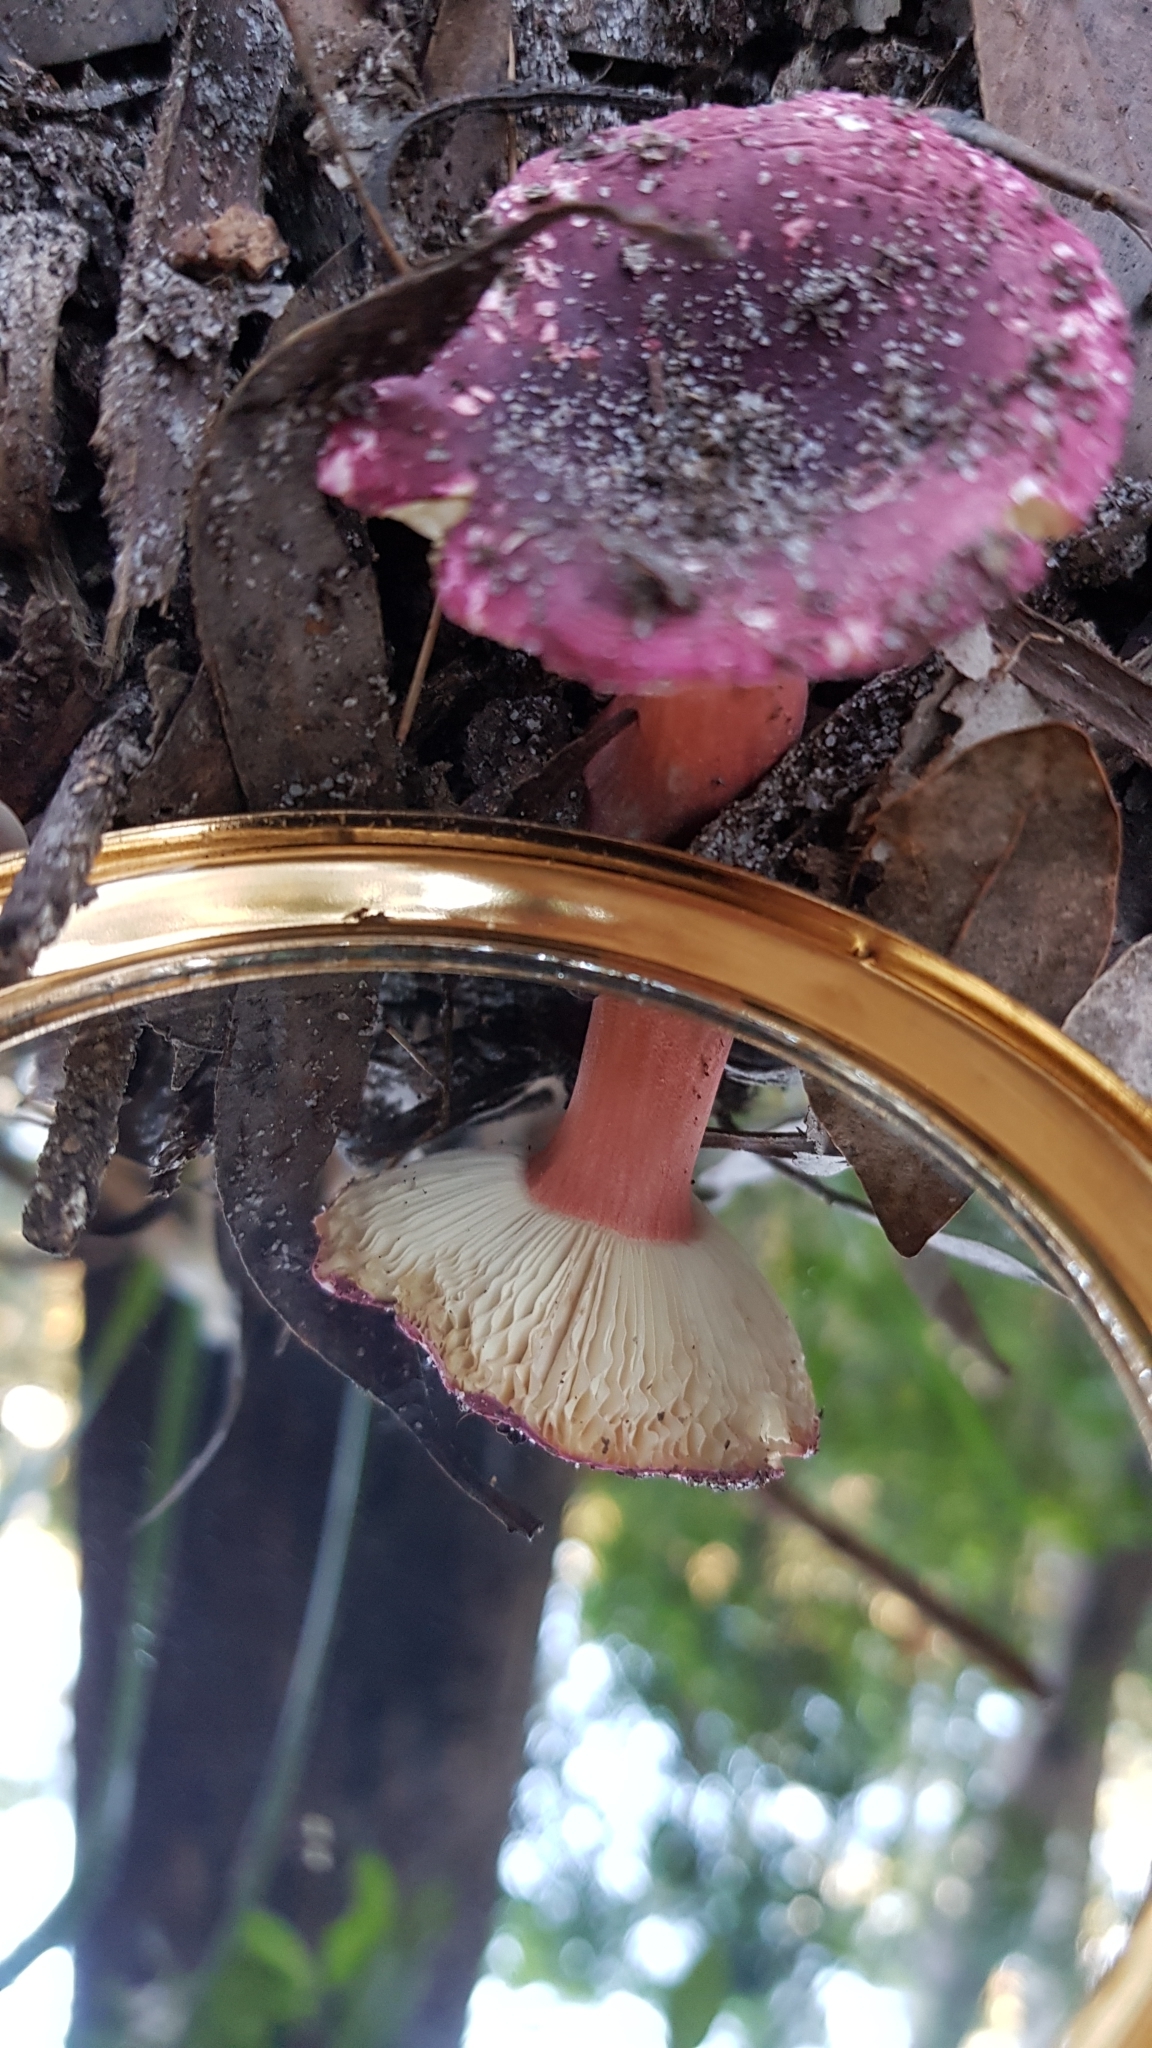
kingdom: Fungi
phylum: Basidiomycota
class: Agaricomycetes
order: Russulales
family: Russulaceae
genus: Russula
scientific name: Russula lenkunya
